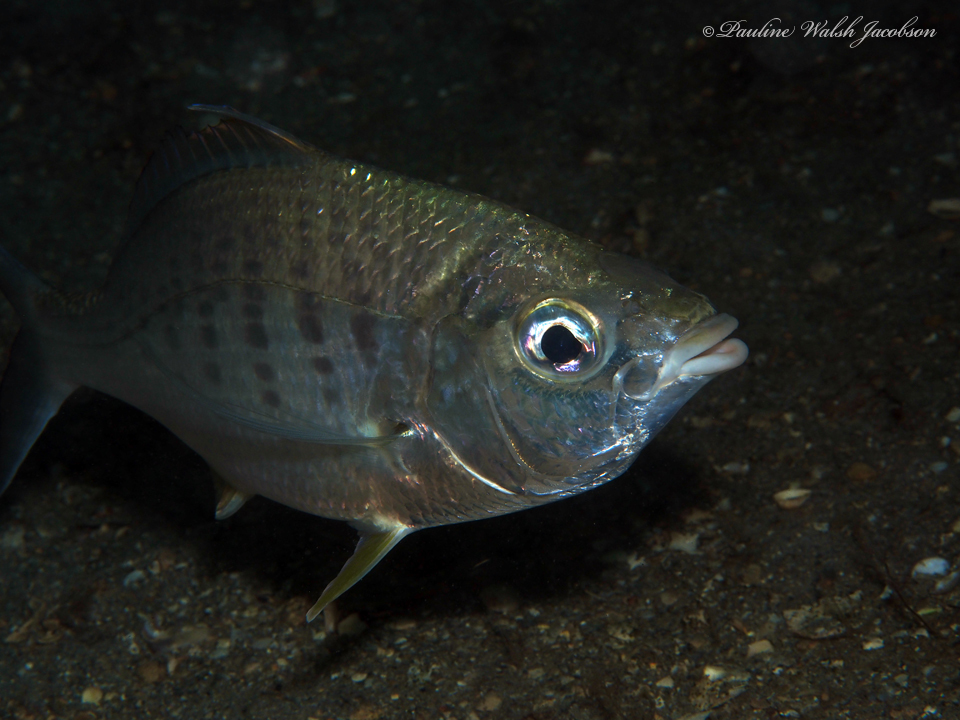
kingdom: Animalia
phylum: Chordata
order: Perciformes
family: Gerreidae
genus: Gerres
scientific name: Gerres cinereus
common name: Hedow
